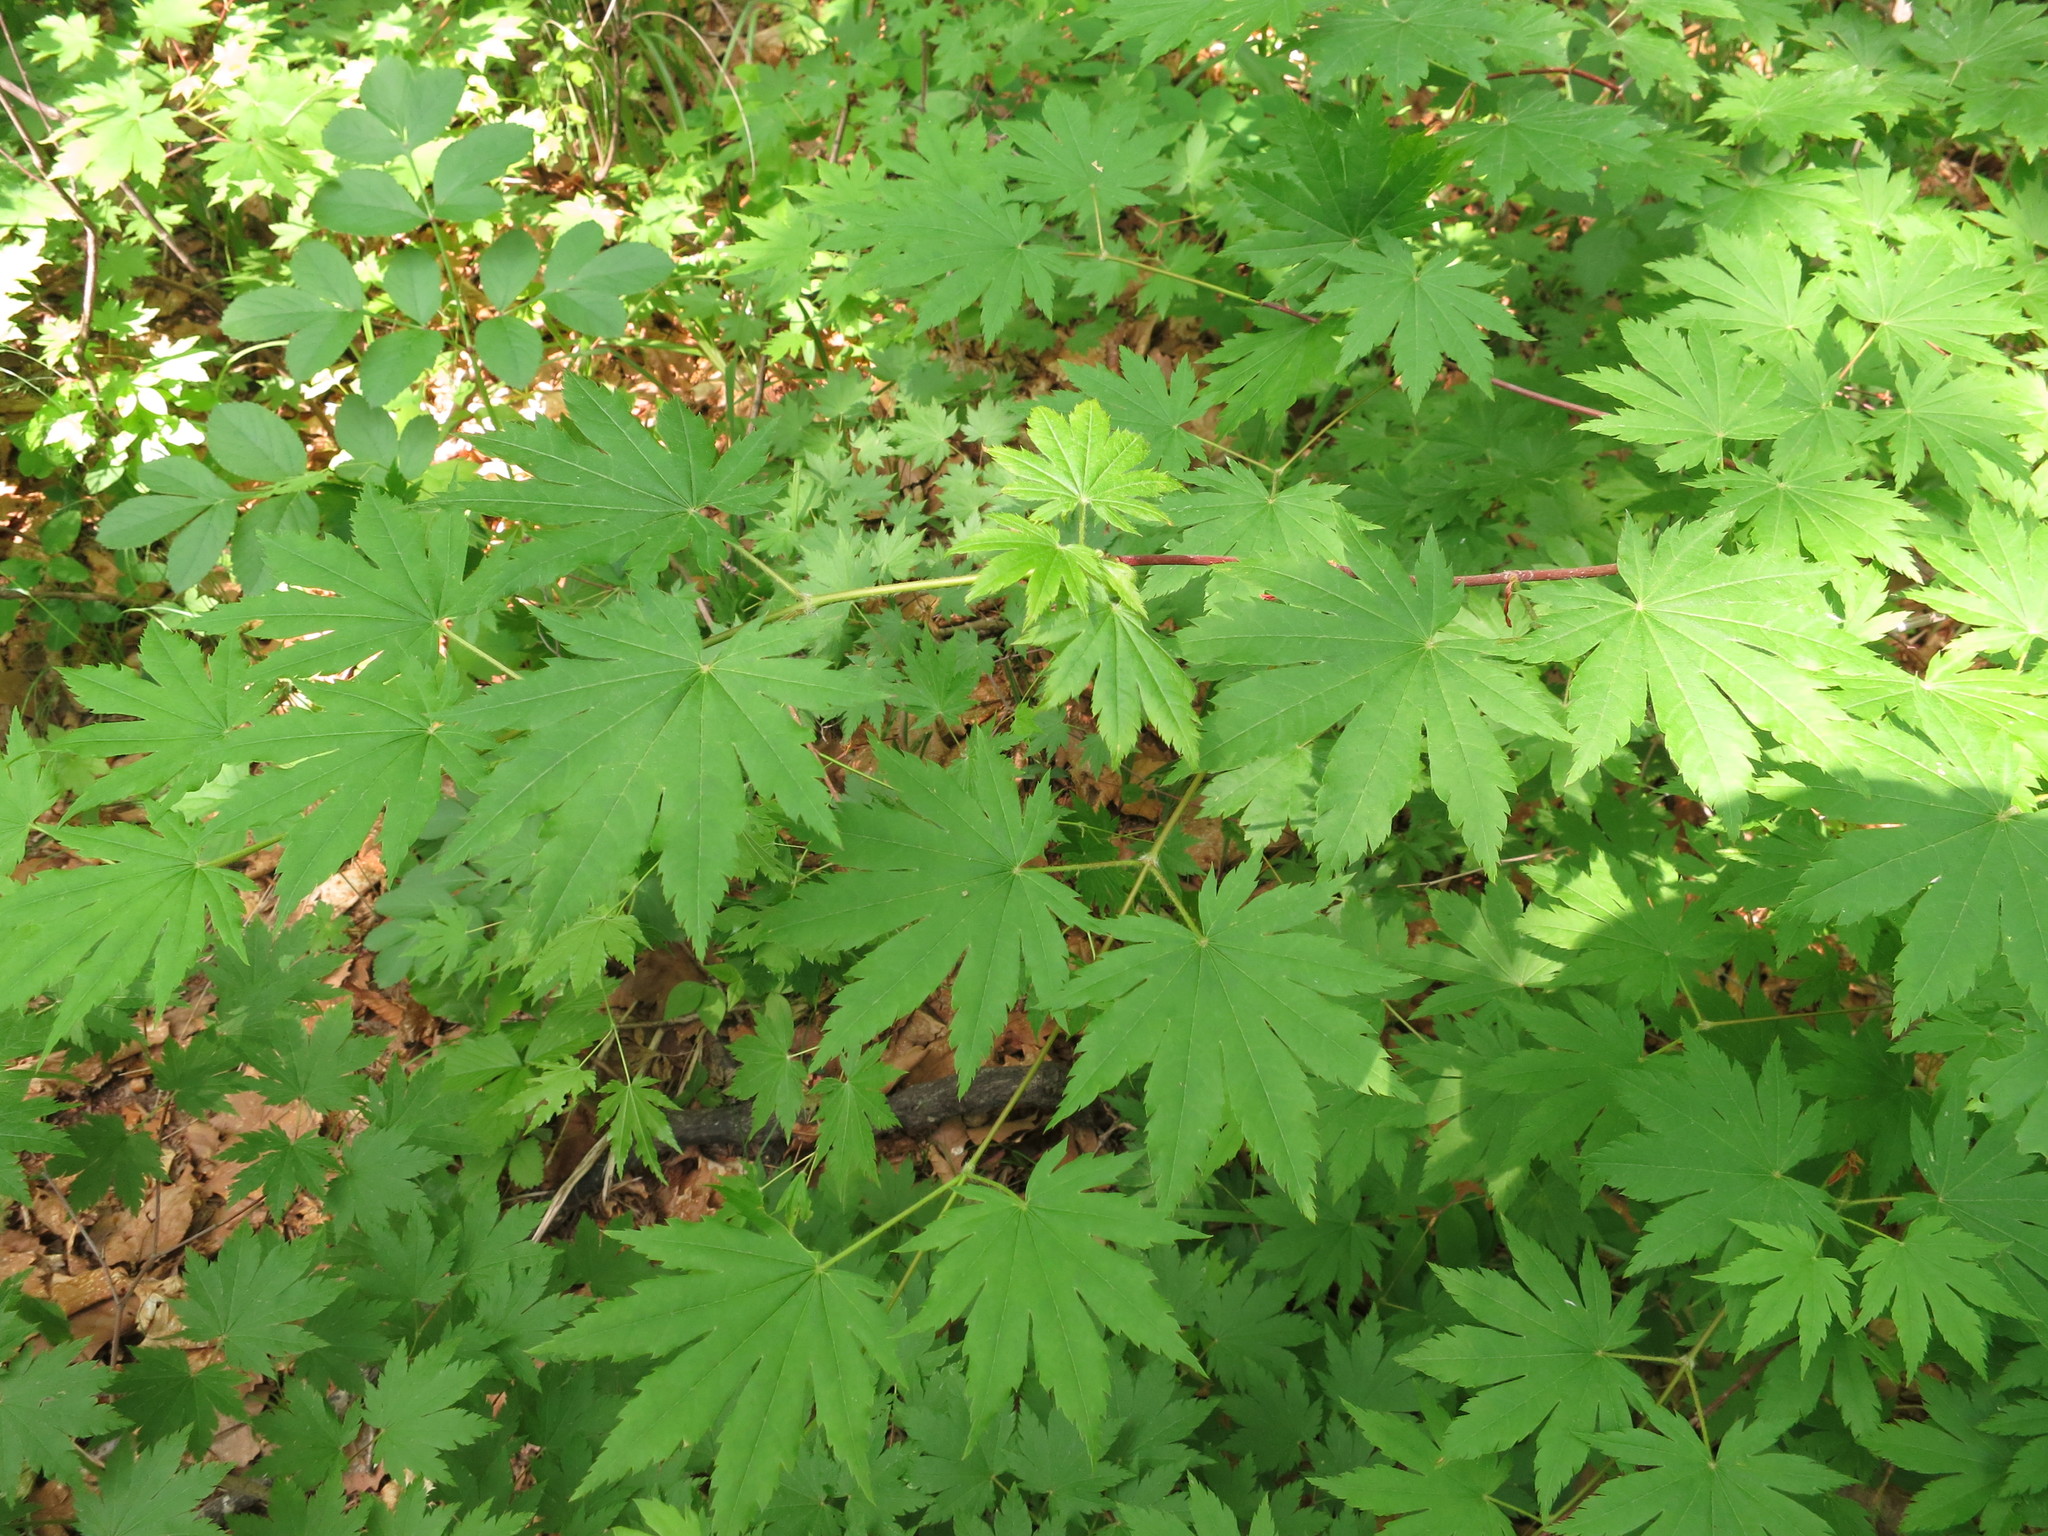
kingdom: Plantae
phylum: Tracheophyta
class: Magnoliopsida
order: Sapindales
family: Sapindaceae
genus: Acer
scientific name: Acer pseudosieboldianum
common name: Korean maple
